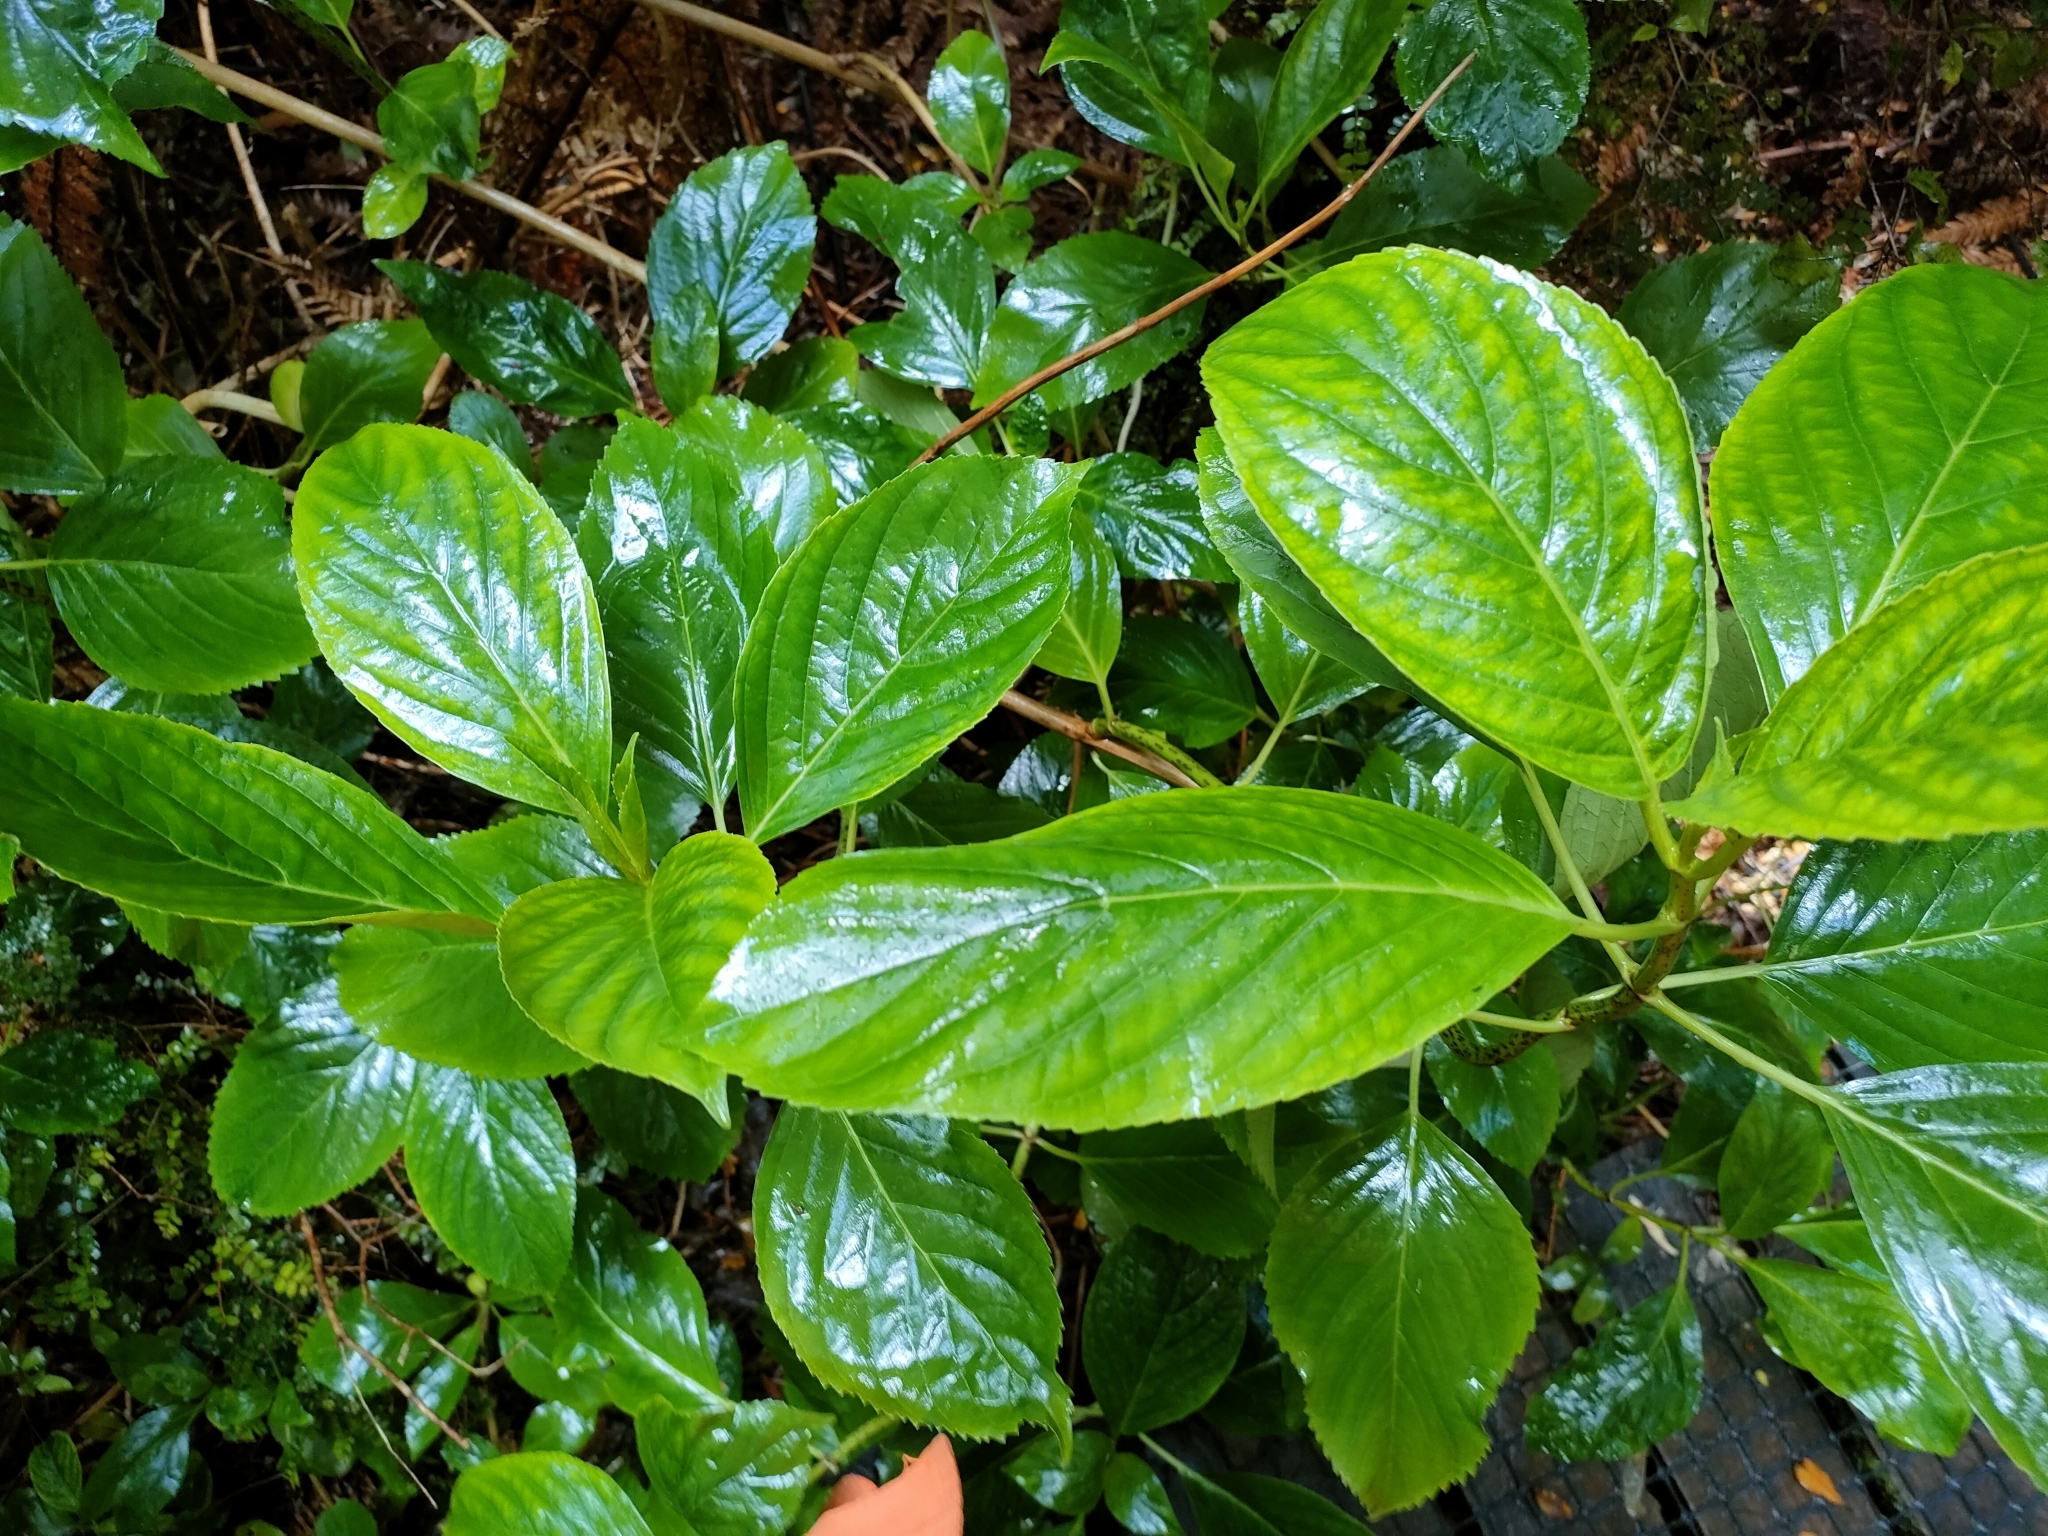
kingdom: Plantae
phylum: Tracheophyta
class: Magnoliopsida
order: Cornales
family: Hydrangeaceae
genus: Hydrangea
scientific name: Hydrangea macrophylla
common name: Hydrangea
